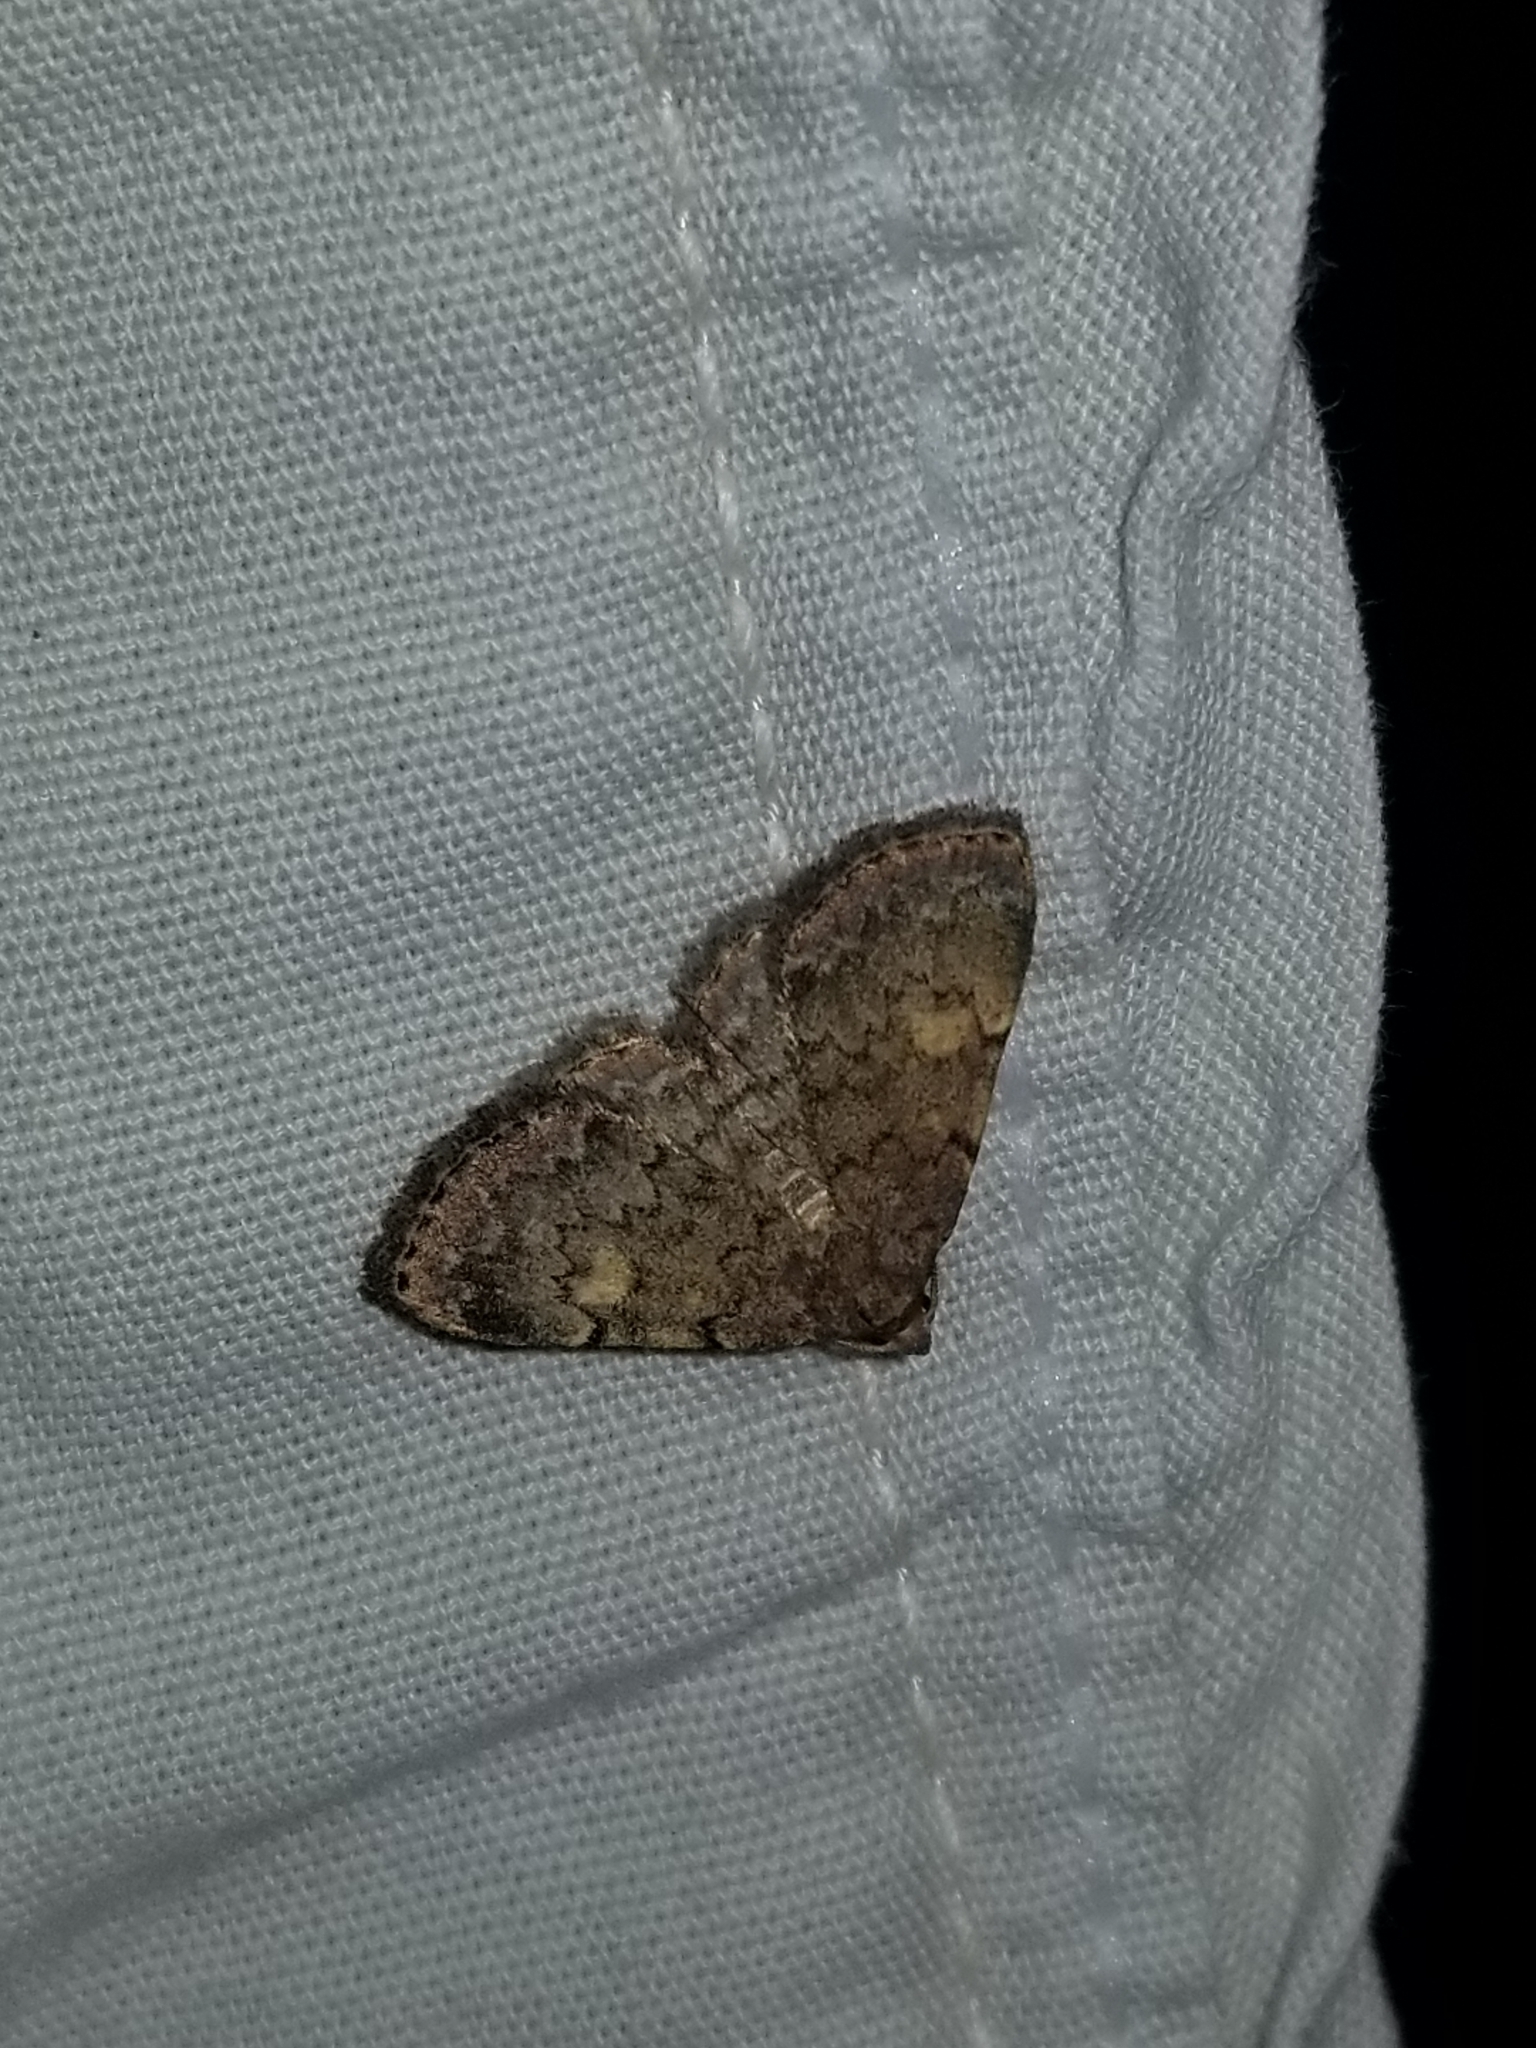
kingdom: Animalia
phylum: Arthropoda
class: Insecta
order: Lepidoptera
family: Erebidae
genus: Idia
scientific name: Idia aemula
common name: Common idia moth
